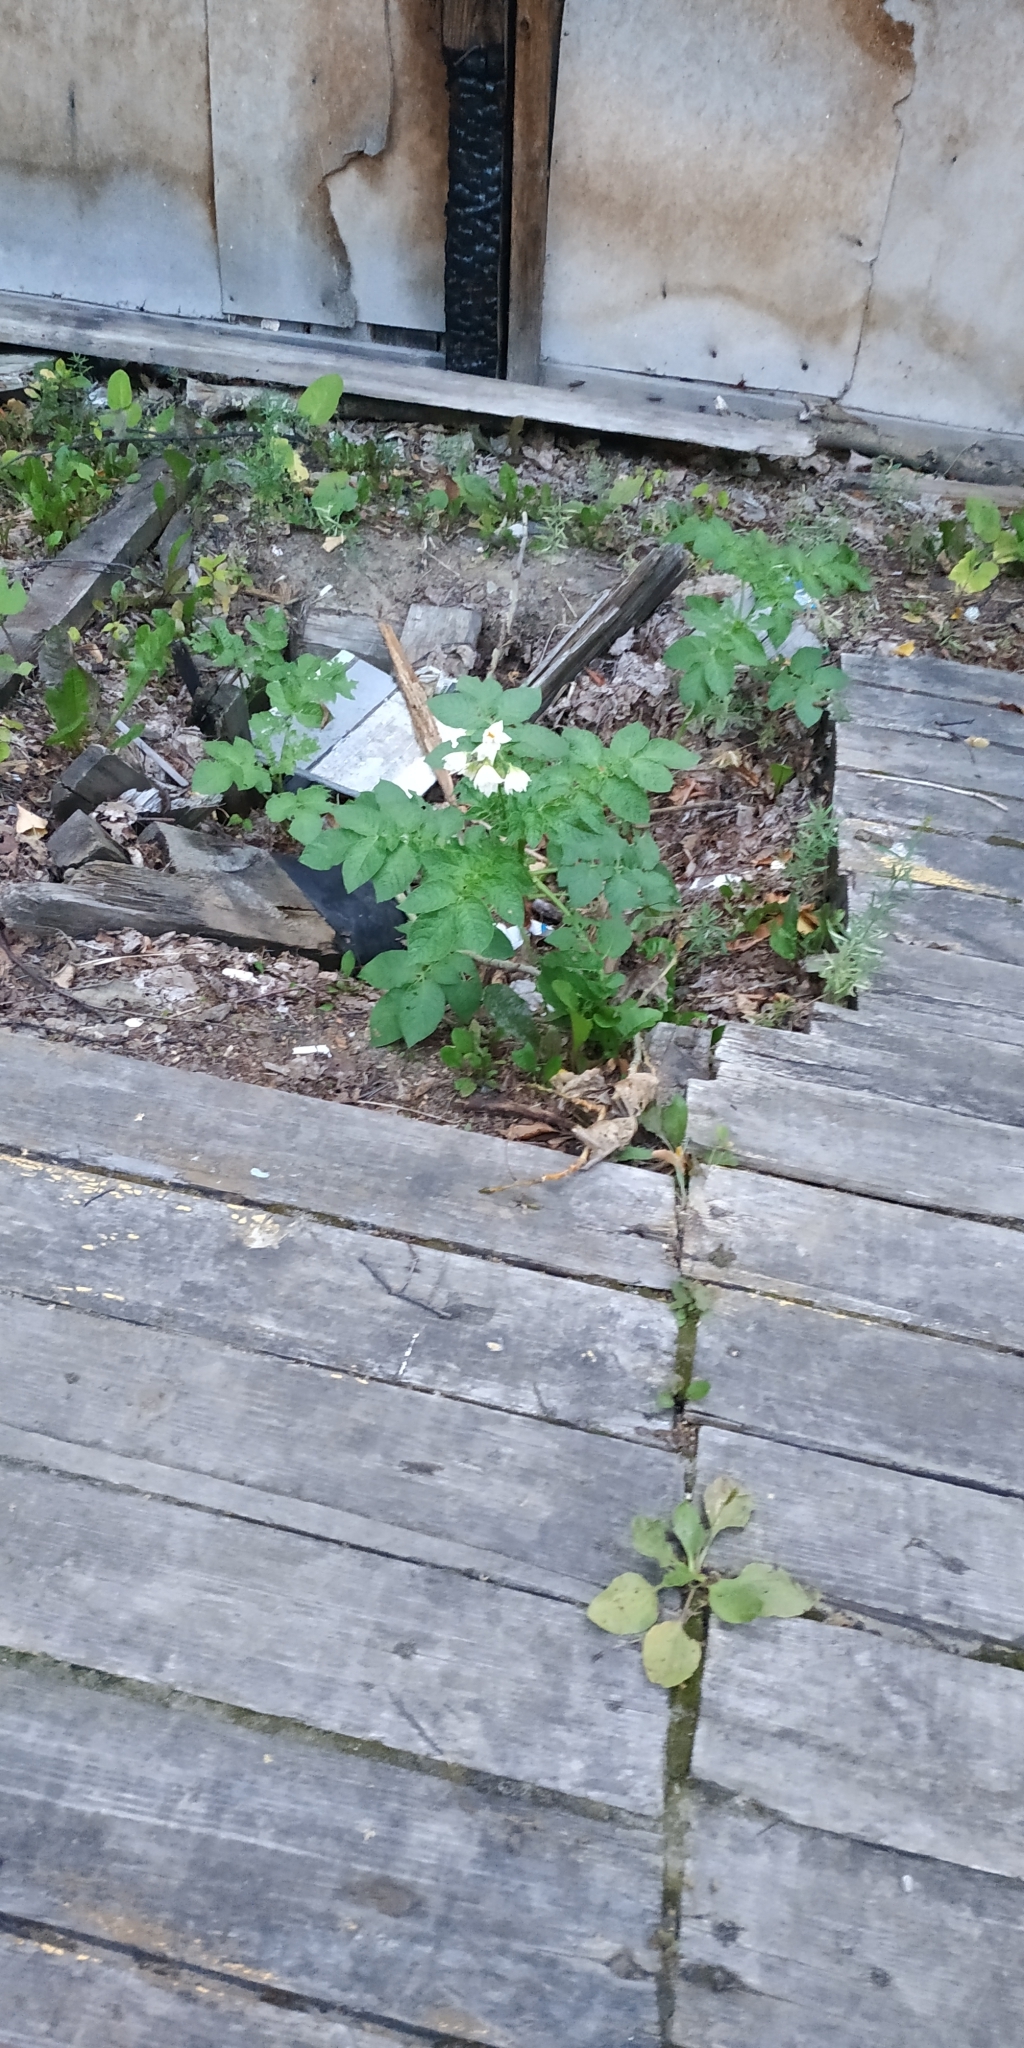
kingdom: Plantae
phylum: Tracheophyta
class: Magnoliopsida
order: Solanales
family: Solanaceae
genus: Solanum
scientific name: Solanum tuberosum
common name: Potato
